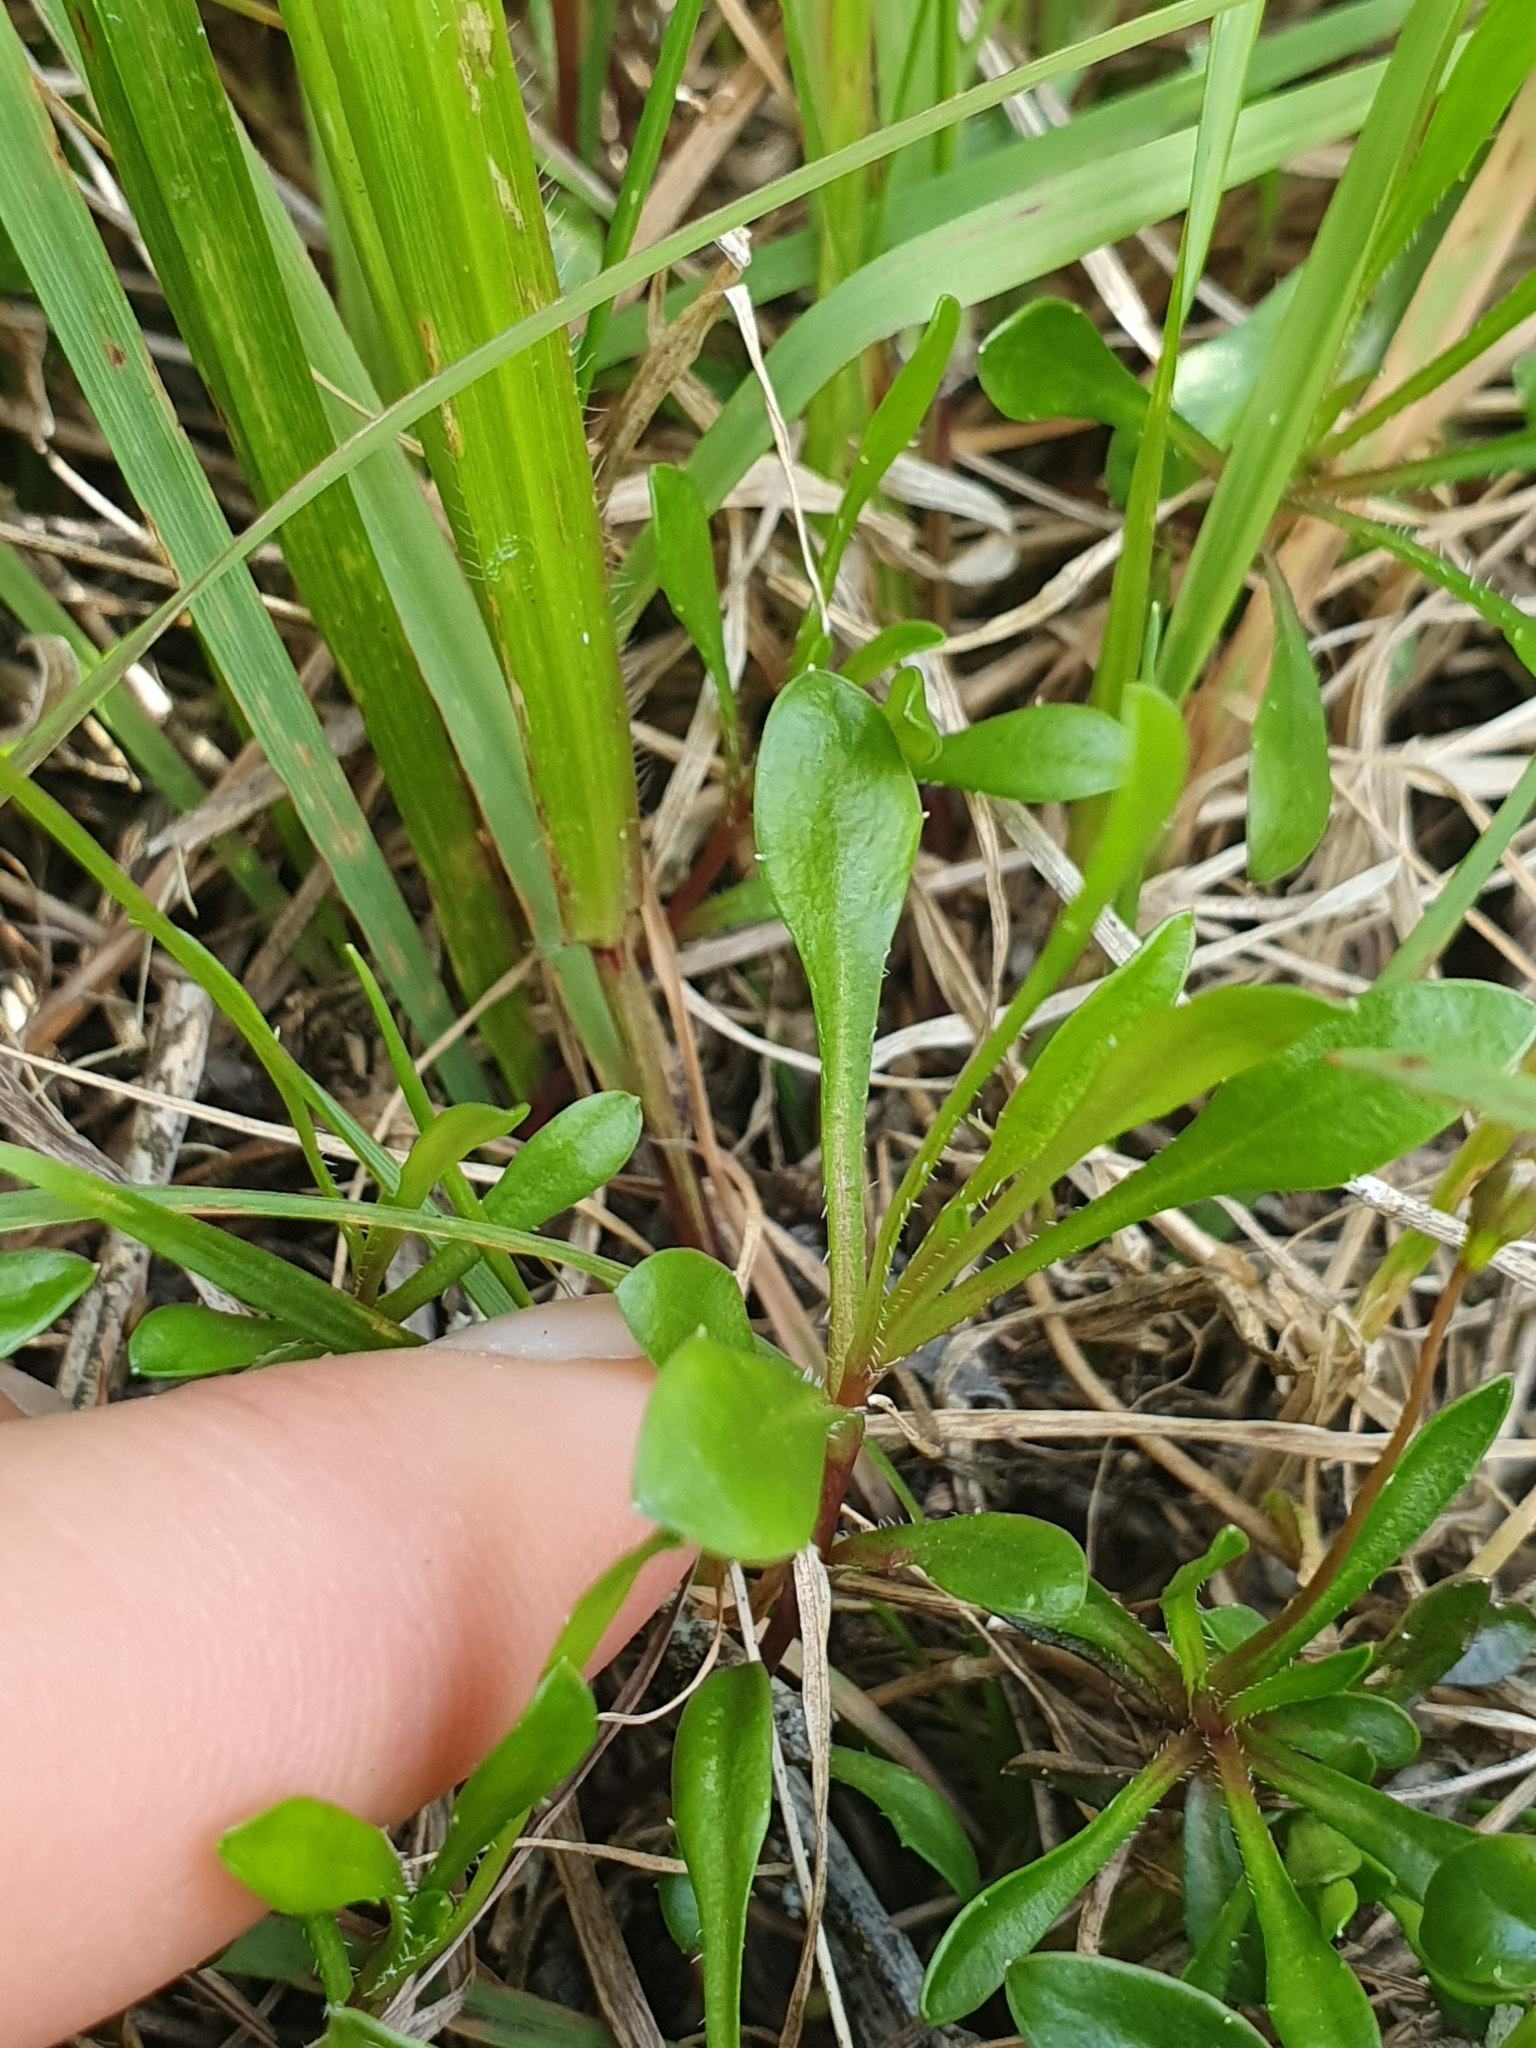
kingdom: Plantae
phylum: Tracheophyta
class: Magnoliopsida
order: Asterales
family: Campanulaceae
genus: Wahlenbergia
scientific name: Wahlenbergia albomarginata
